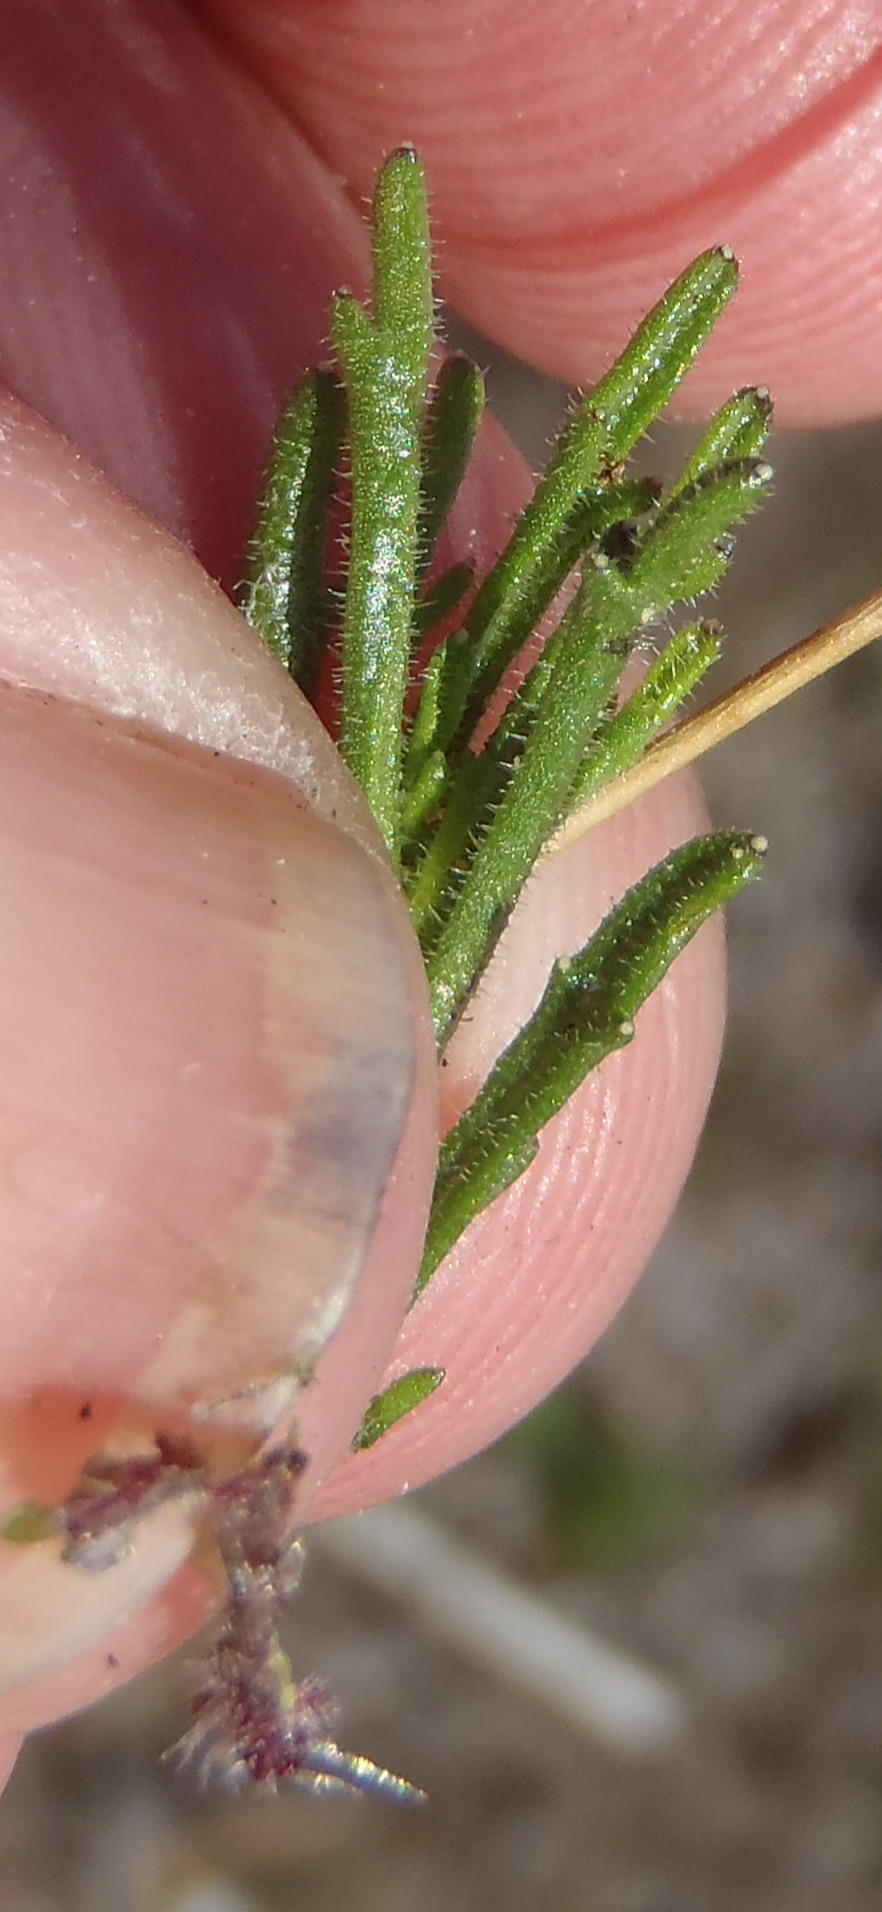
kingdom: Plantae
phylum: Tracheophyta
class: Magnoliopsida
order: Asterales
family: Campanulaceae
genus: Lobelia
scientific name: Lobelia chamaepitys
